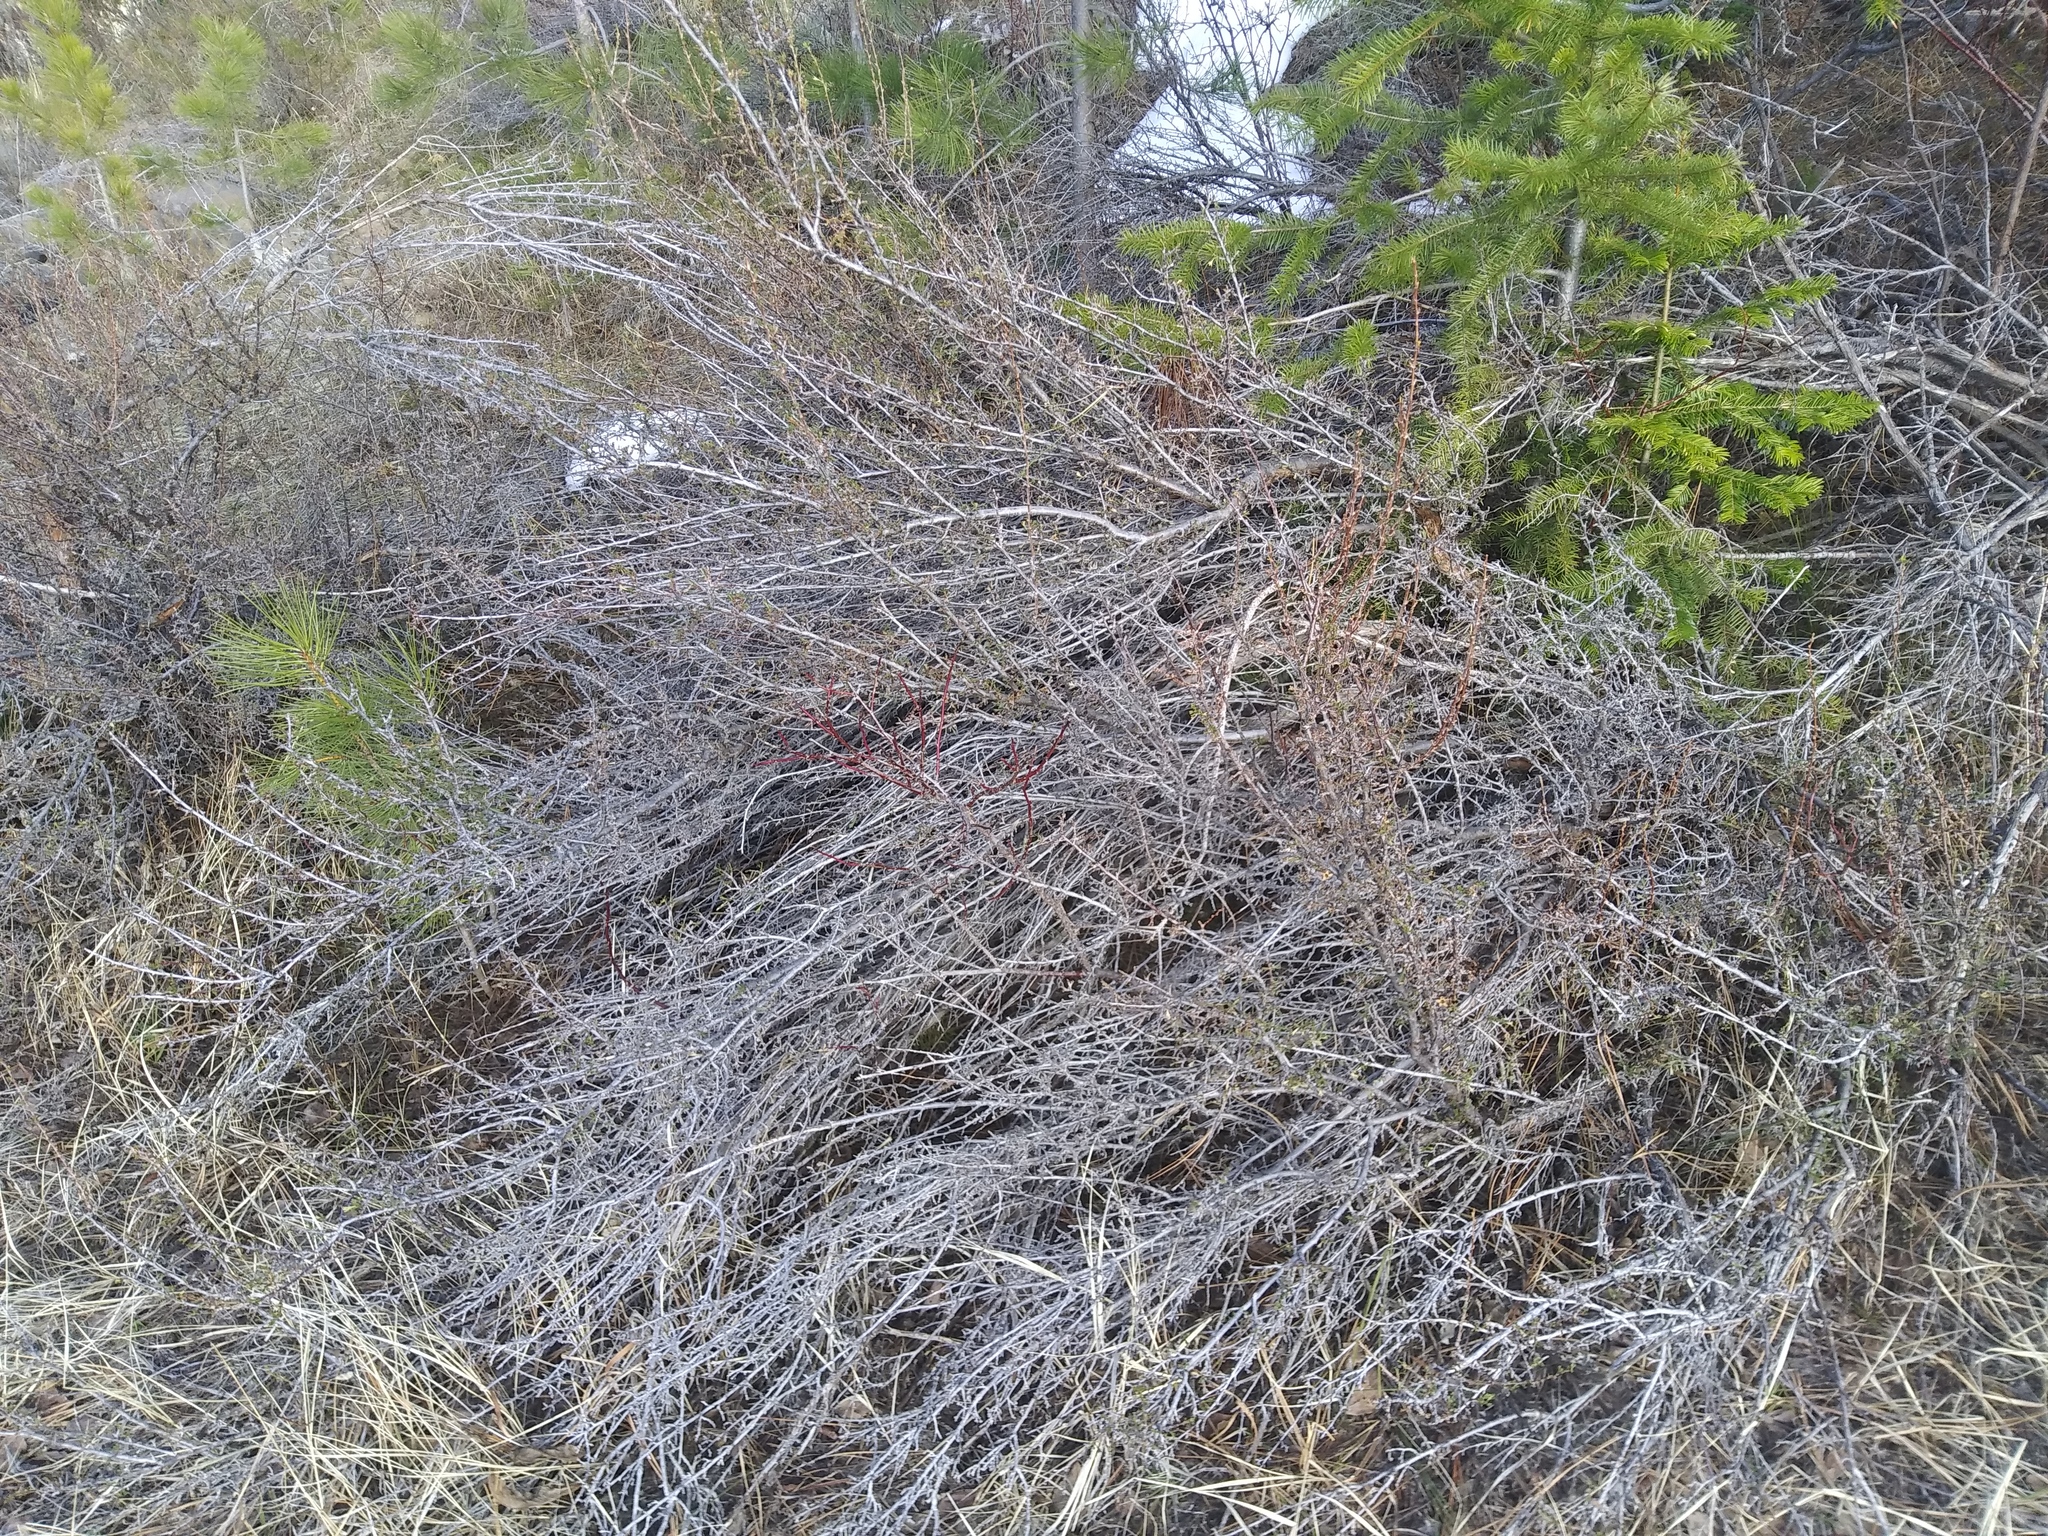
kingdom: Plantae
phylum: Tracheophyta
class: Magnoliopsida
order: Rosales
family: Rosaceae
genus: Purshia
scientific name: Purshia tridentata
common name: Antelope bitterbrush
